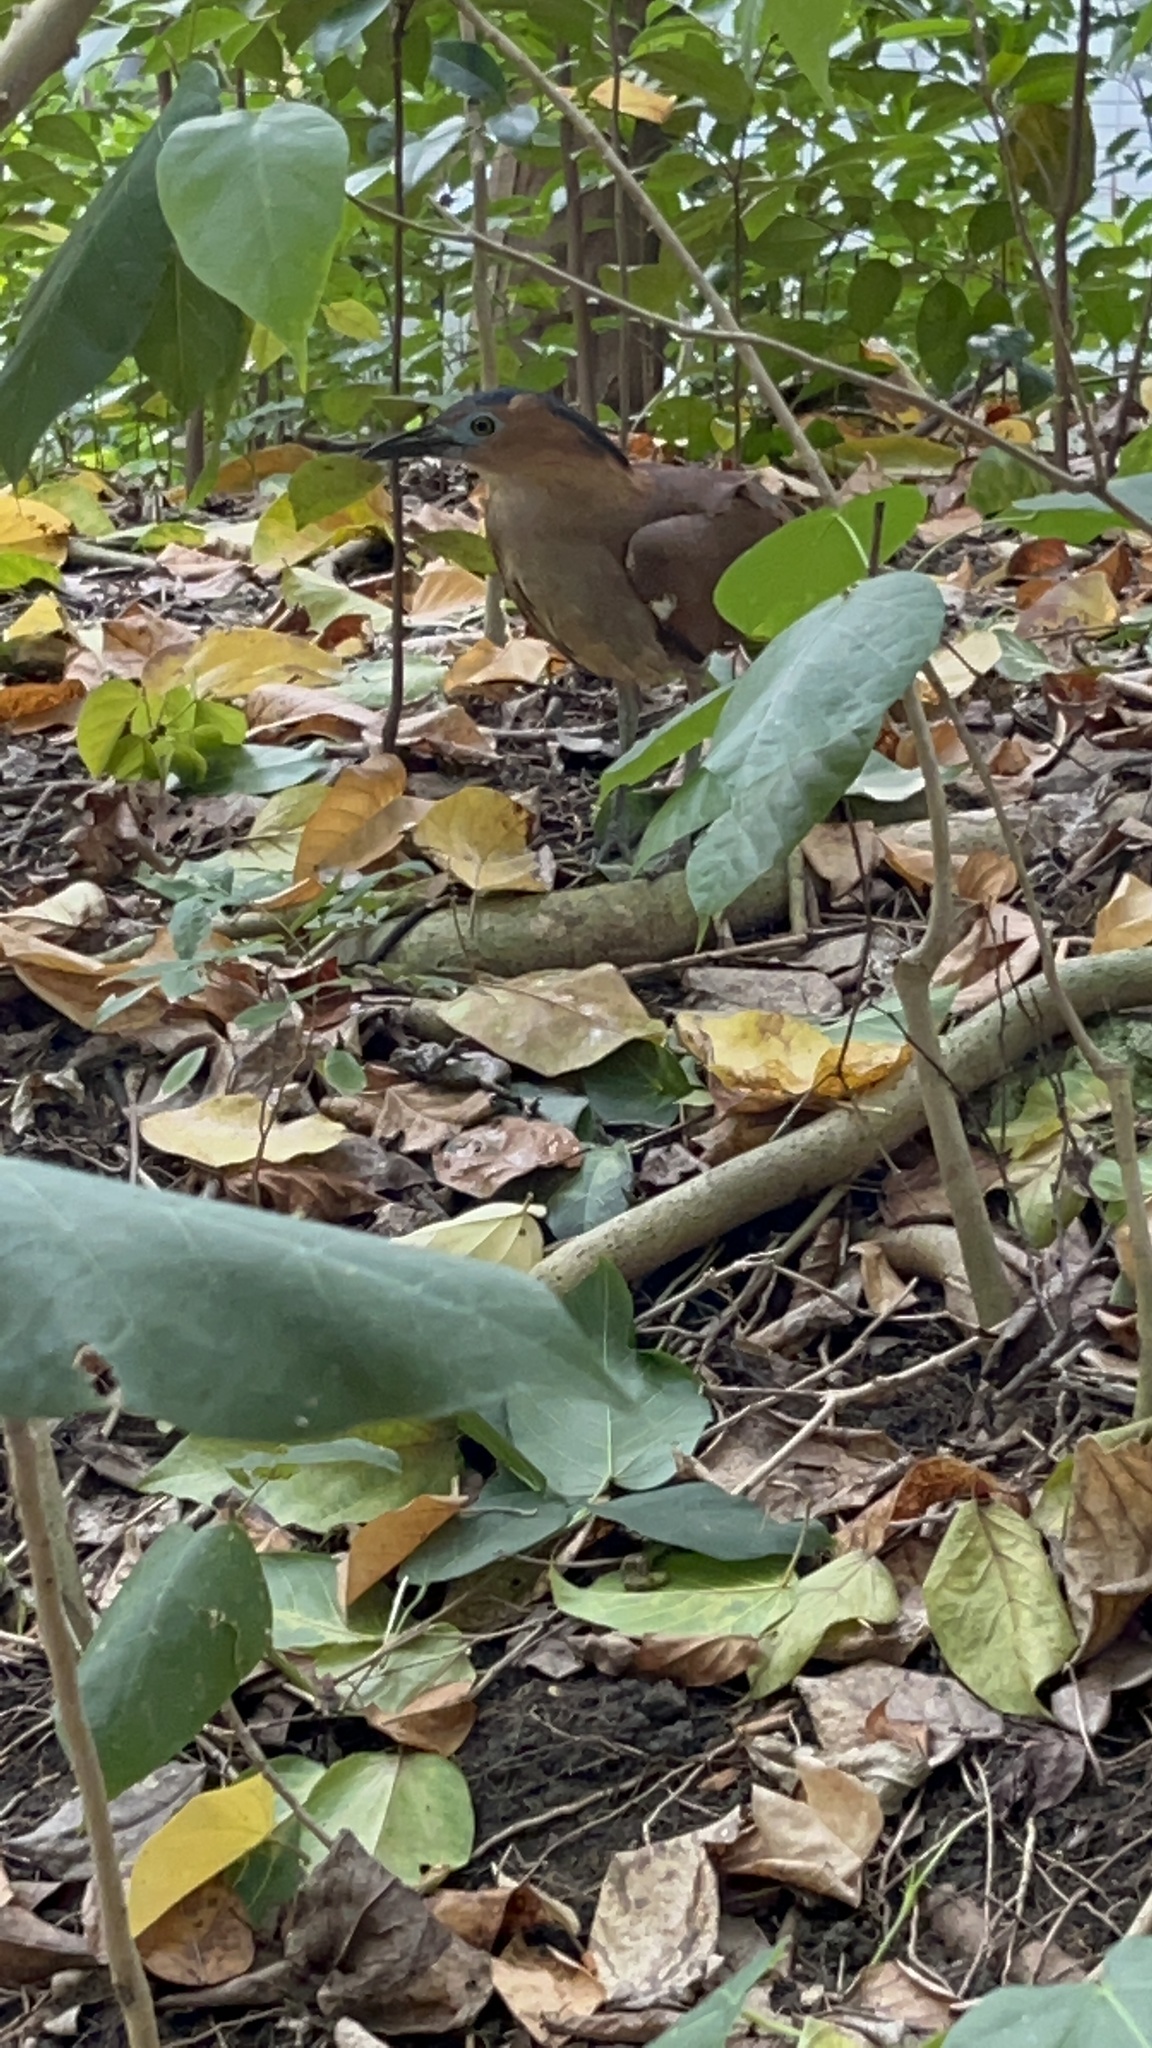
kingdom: Animalia
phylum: Chordata
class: Aves
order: Pelecaniformes
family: Ardeidae
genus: Gorsachius
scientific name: Gorsachius melanolophus
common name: Malayan night heron
